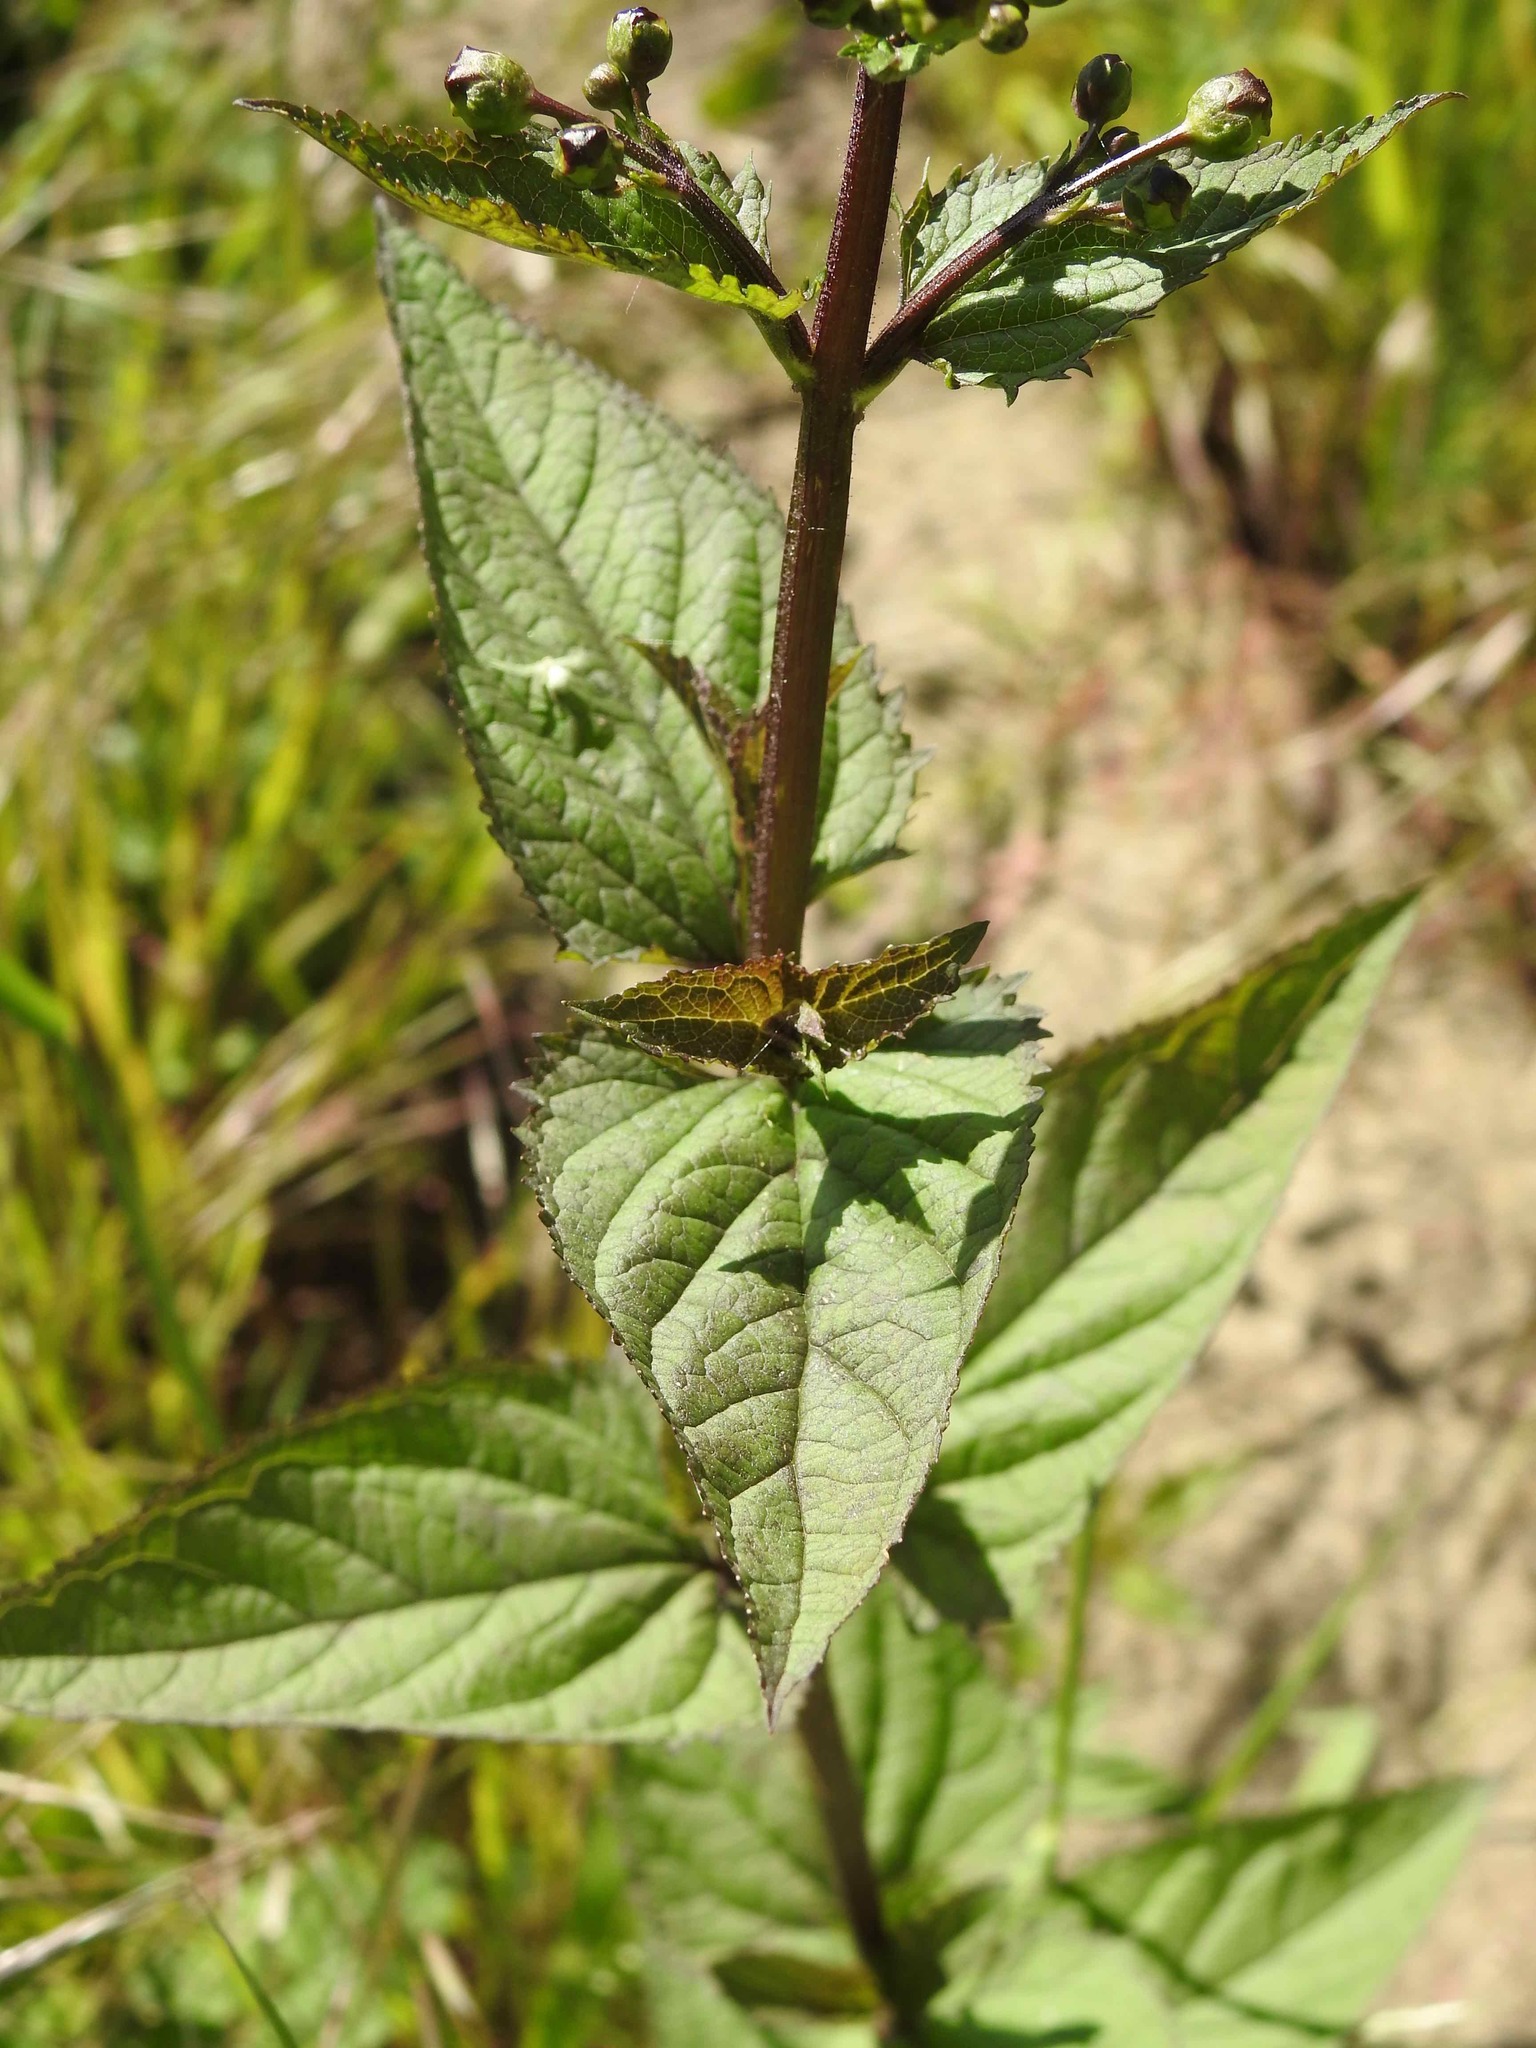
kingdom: Plantae
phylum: Tracheophyta
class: Magnoliopsida
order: Lamiales
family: Scrophulariaceae
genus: Scrophularia
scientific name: Scrophularia nodosa
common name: Common figwort
